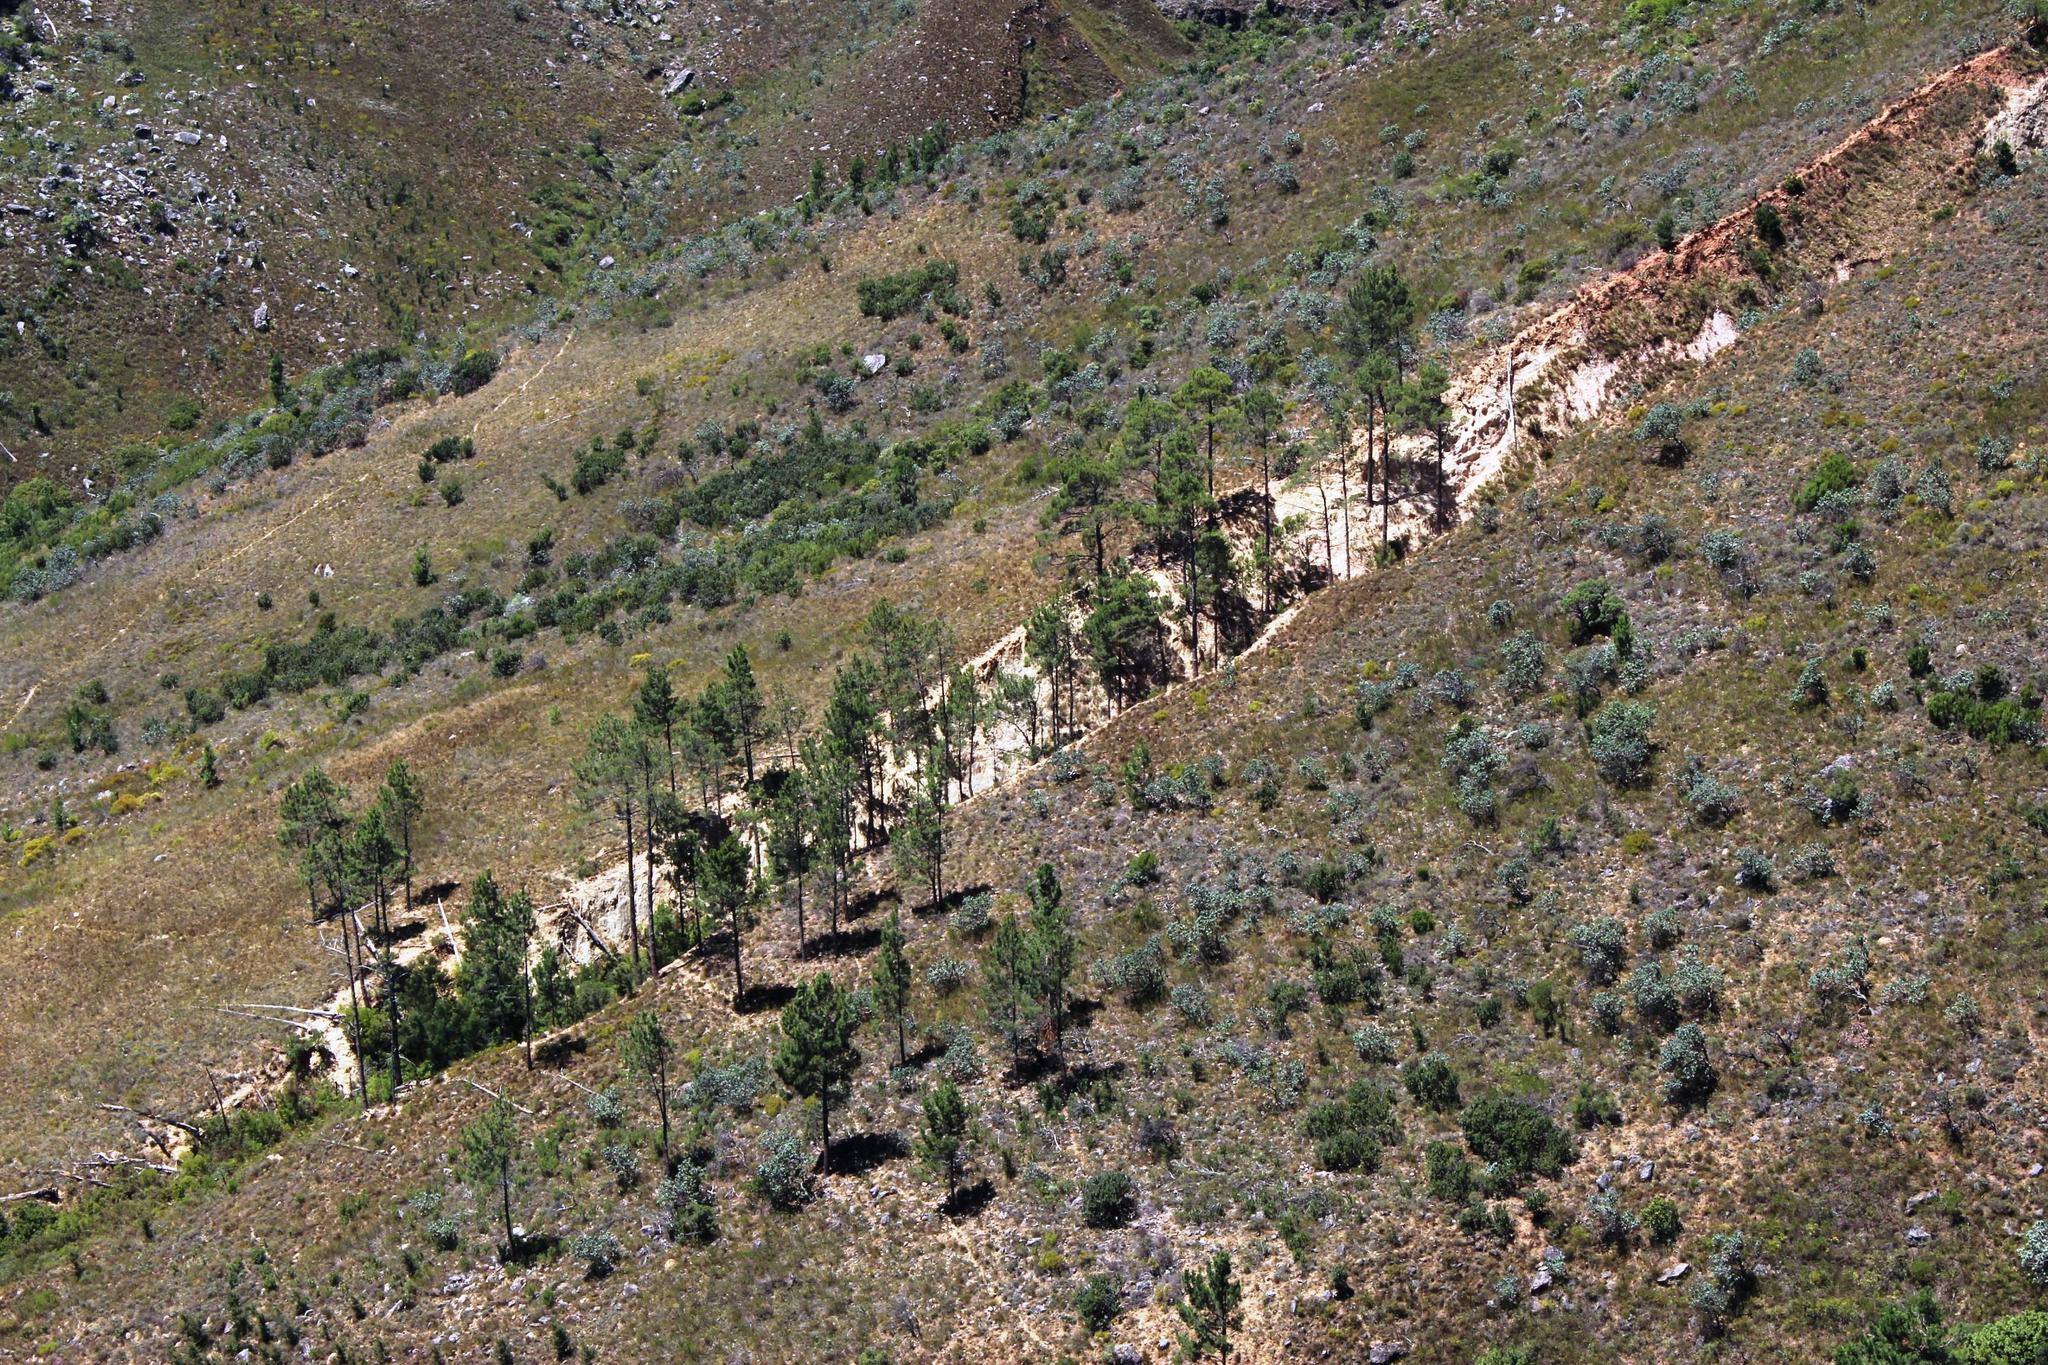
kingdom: Plantae
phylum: Tracheophyta
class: Pinopsida
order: Pinales
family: Pinaceae
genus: Pinus
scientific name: Pinus pinaster
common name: Maritime pine
